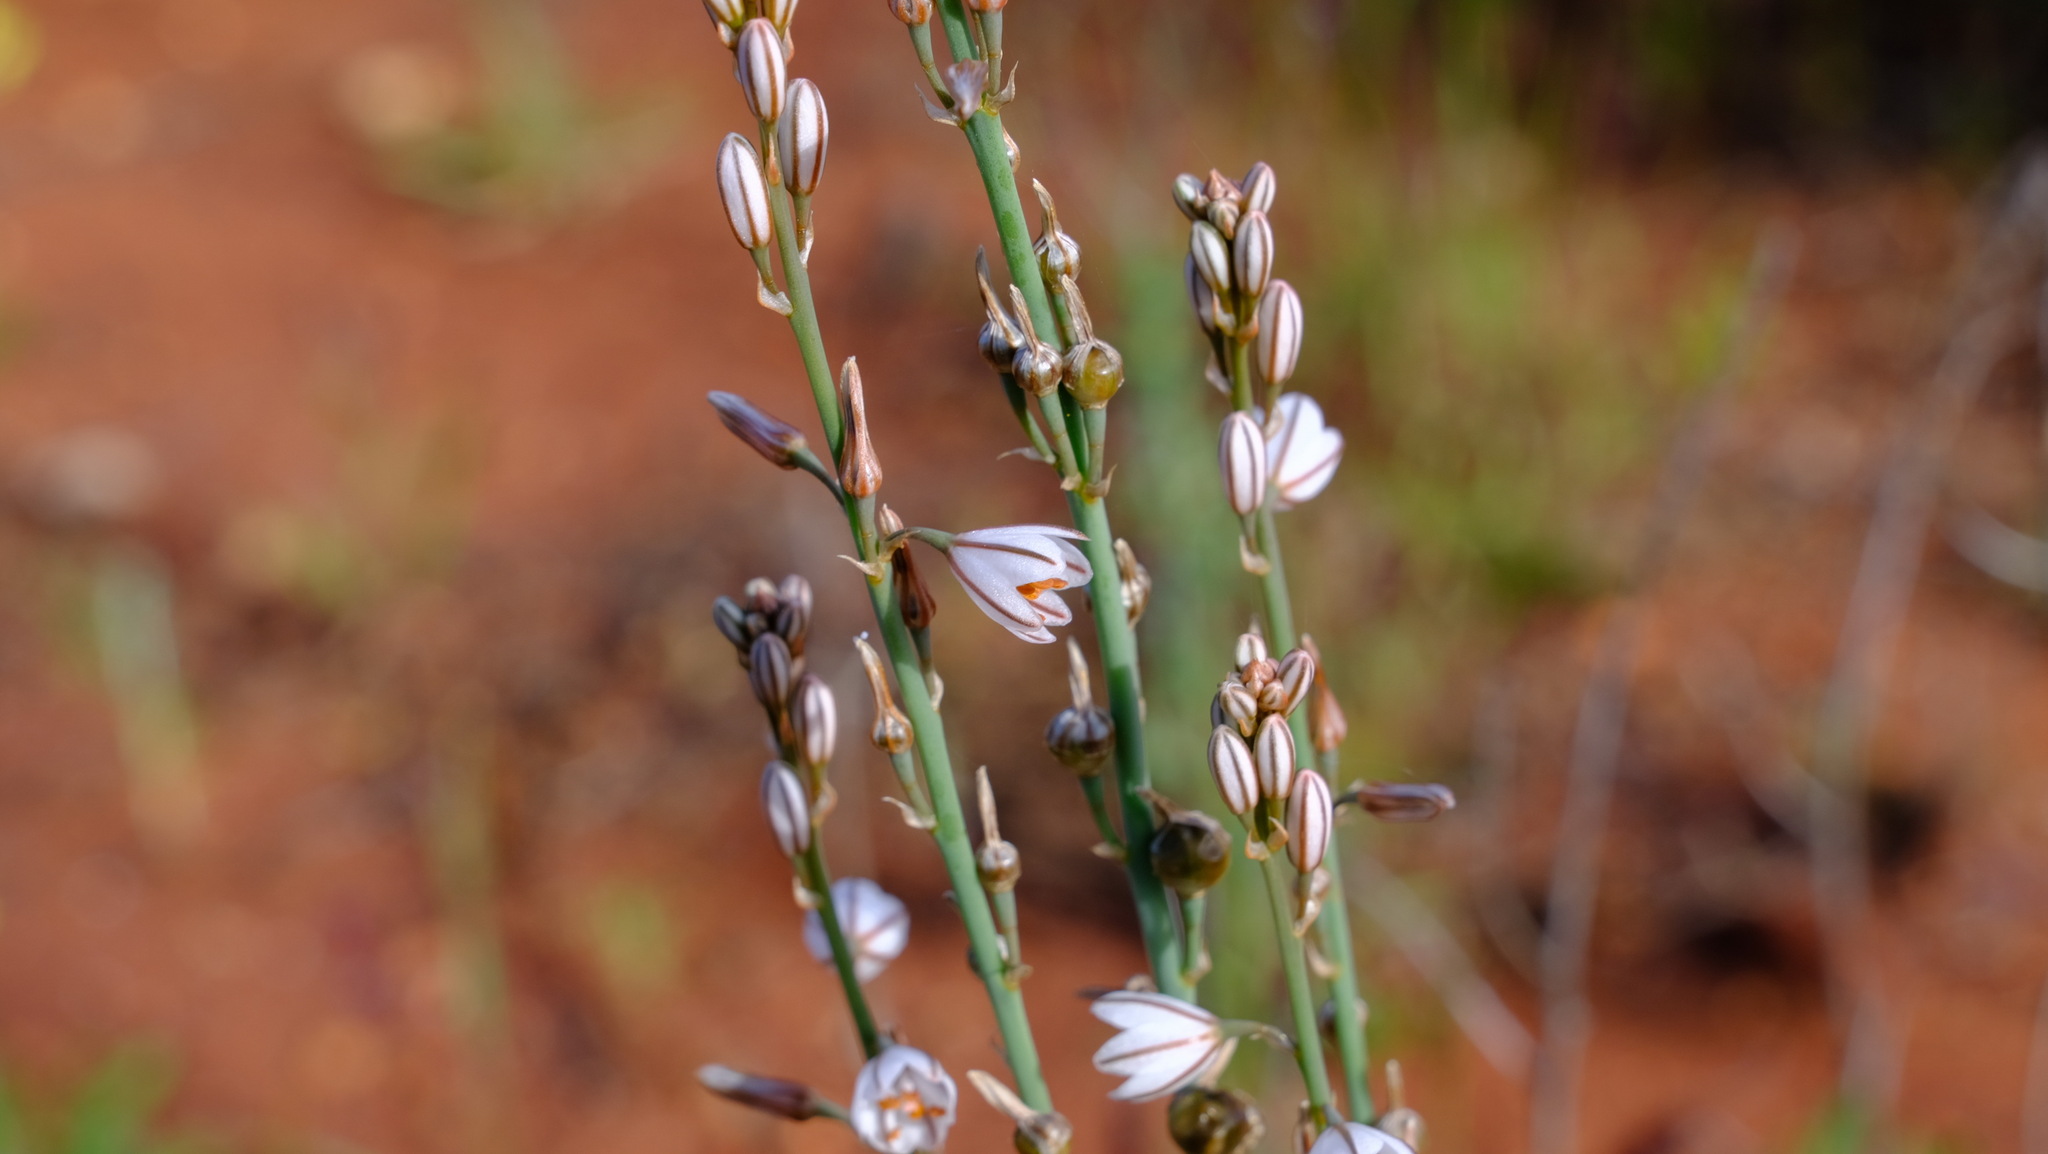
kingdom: Plantae
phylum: Tracheophyta
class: Liliopsida
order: Asparagales
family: Asphodelaceae
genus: Asphodelus
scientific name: Asphodelus fistulosus
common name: Onionweed
